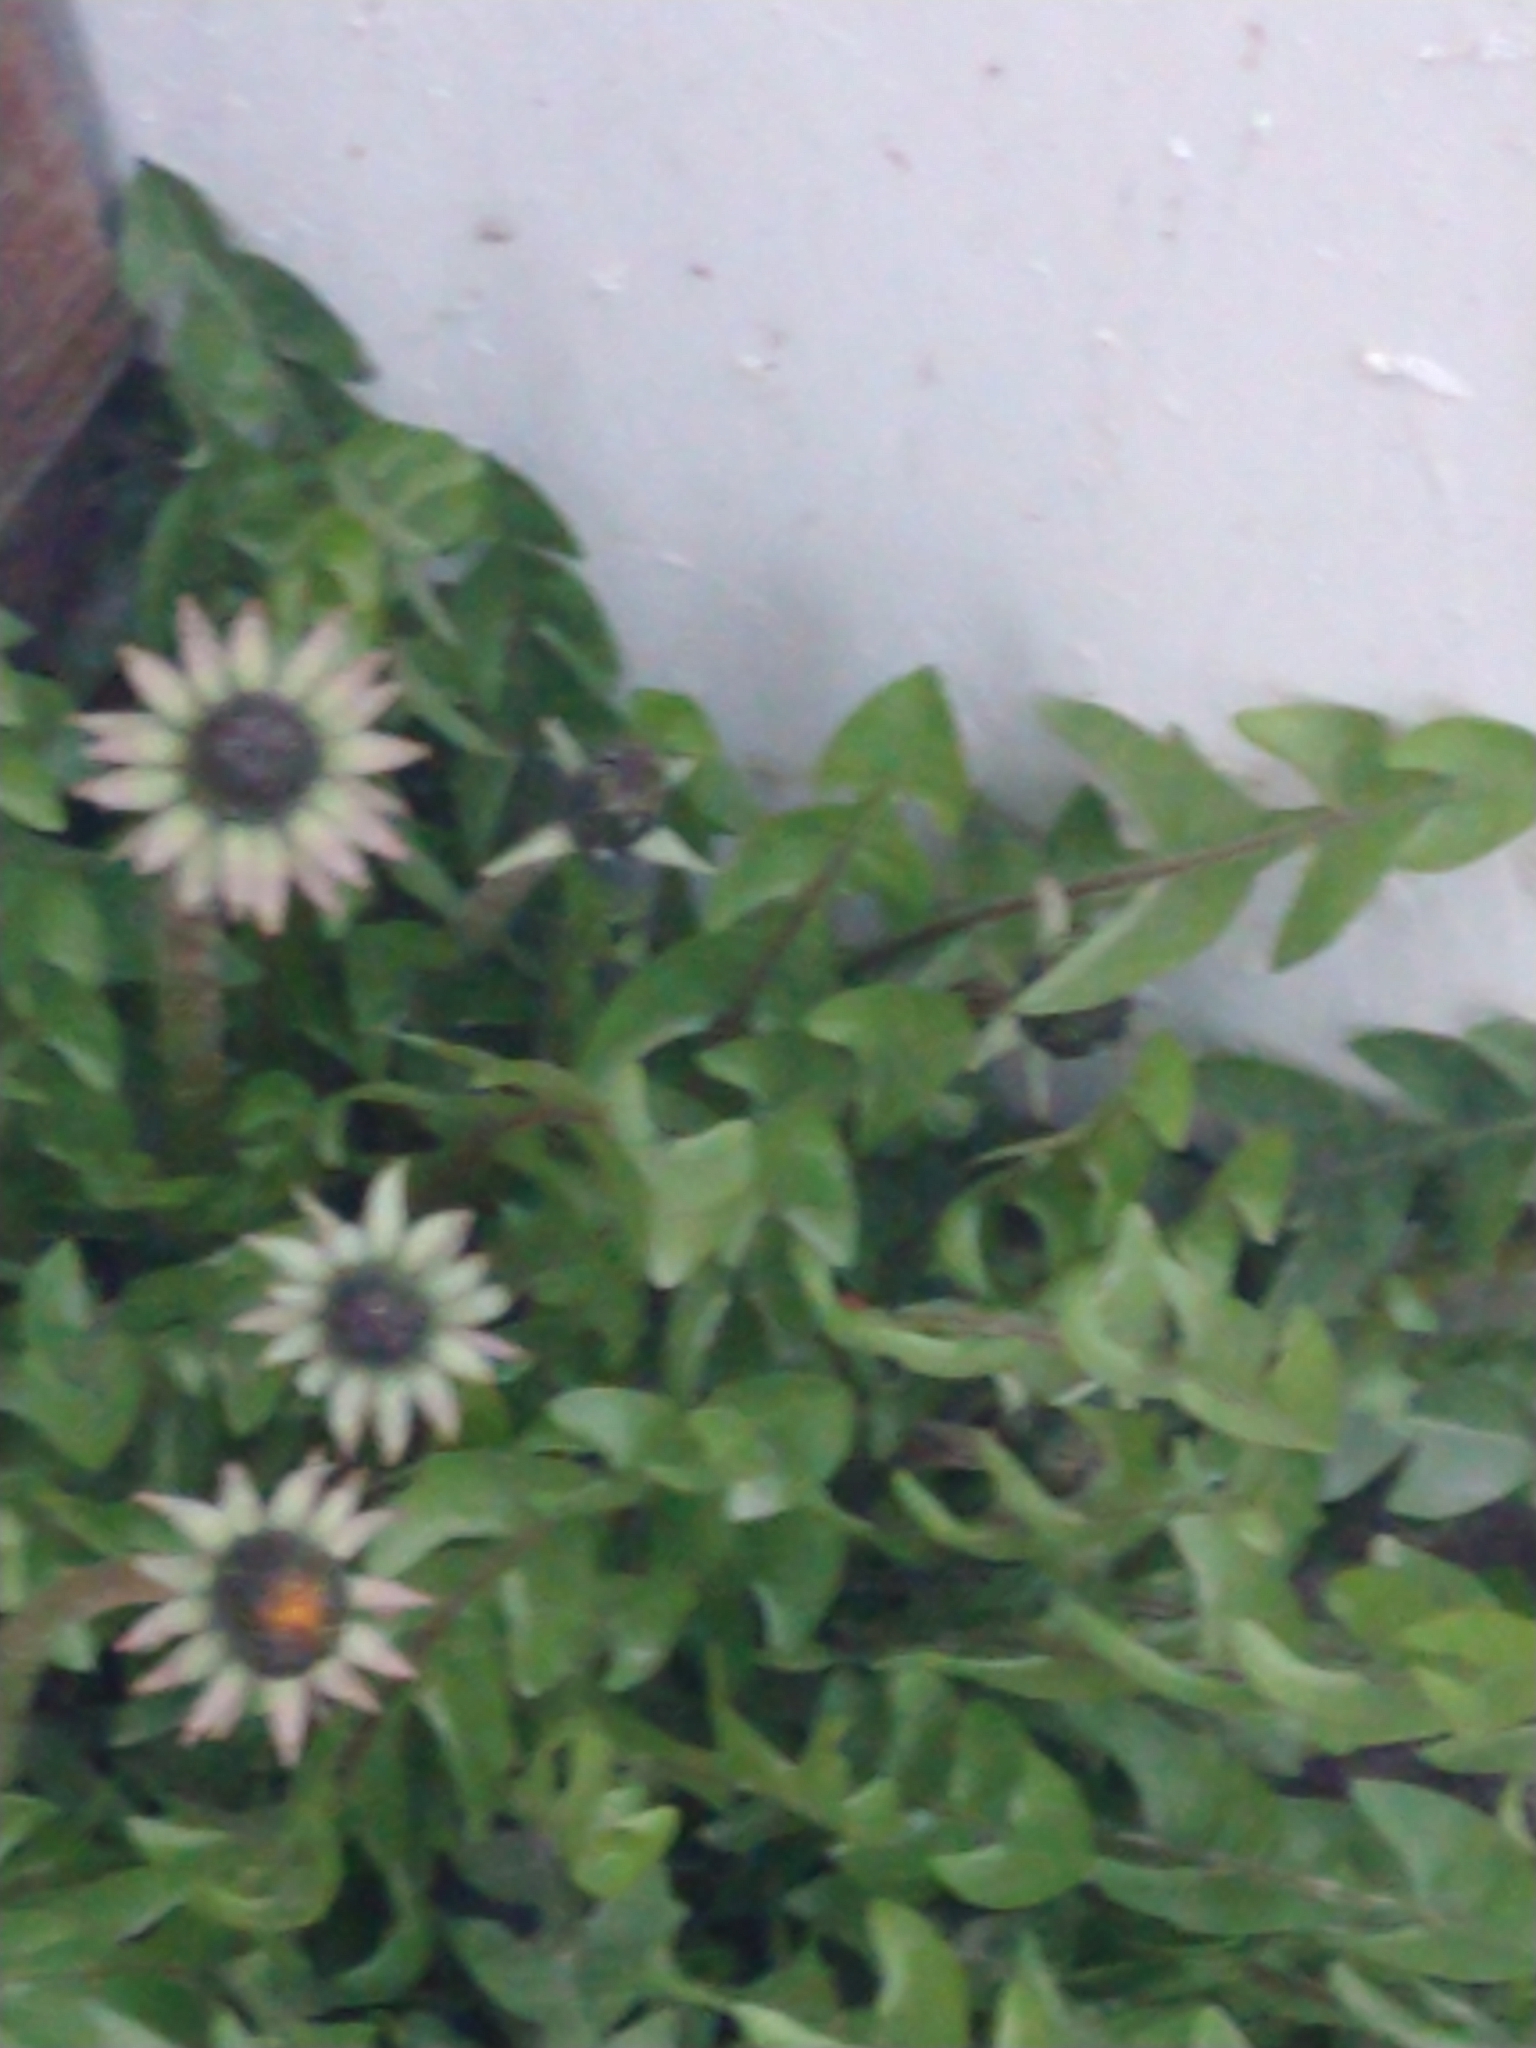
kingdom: Plantae
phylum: Tracheophyta
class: Magnoliopsida
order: Asterales
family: Asteraceae
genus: Taraxacum
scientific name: Taraxacum officinale
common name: Common dandelion
